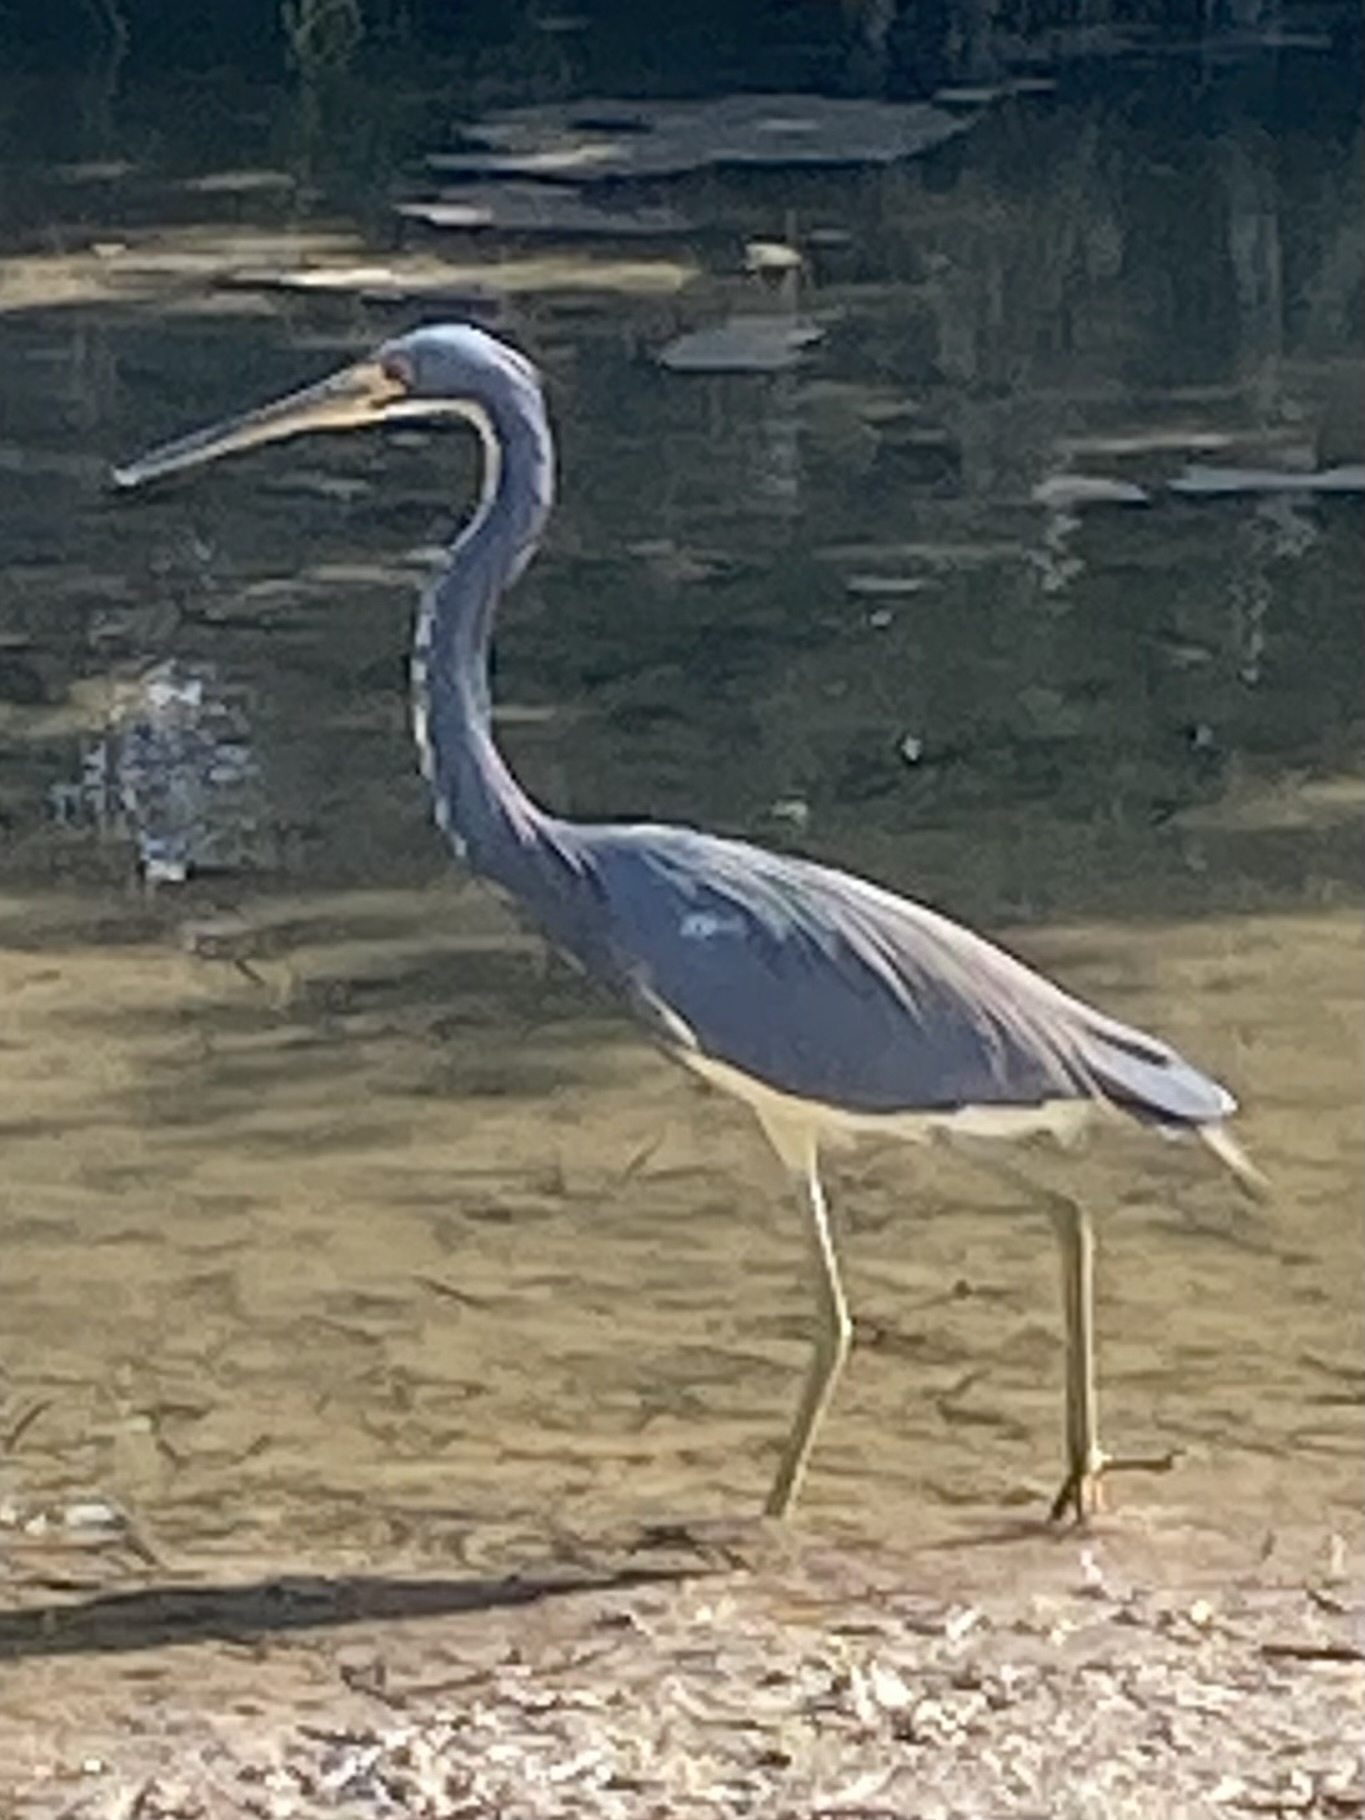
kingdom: Animalia
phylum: Chordata
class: Aves
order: Pelecaniformes
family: Ardeidae
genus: Egretta
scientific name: Egretta tricolor
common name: Tricolored heron
